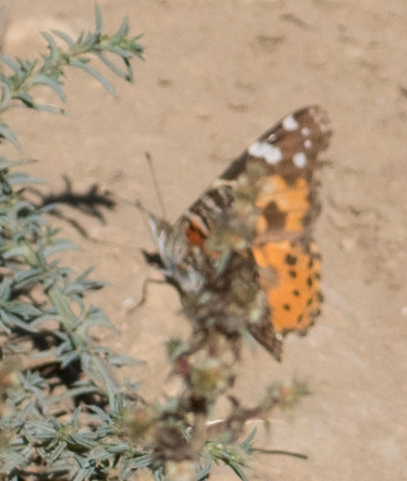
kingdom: Animalia
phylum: Arthropoda
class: Insecta
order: Lepidoptera
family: Nymphalidae
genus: Vanessa
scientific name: Vanessa cardui
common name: Painted lady
